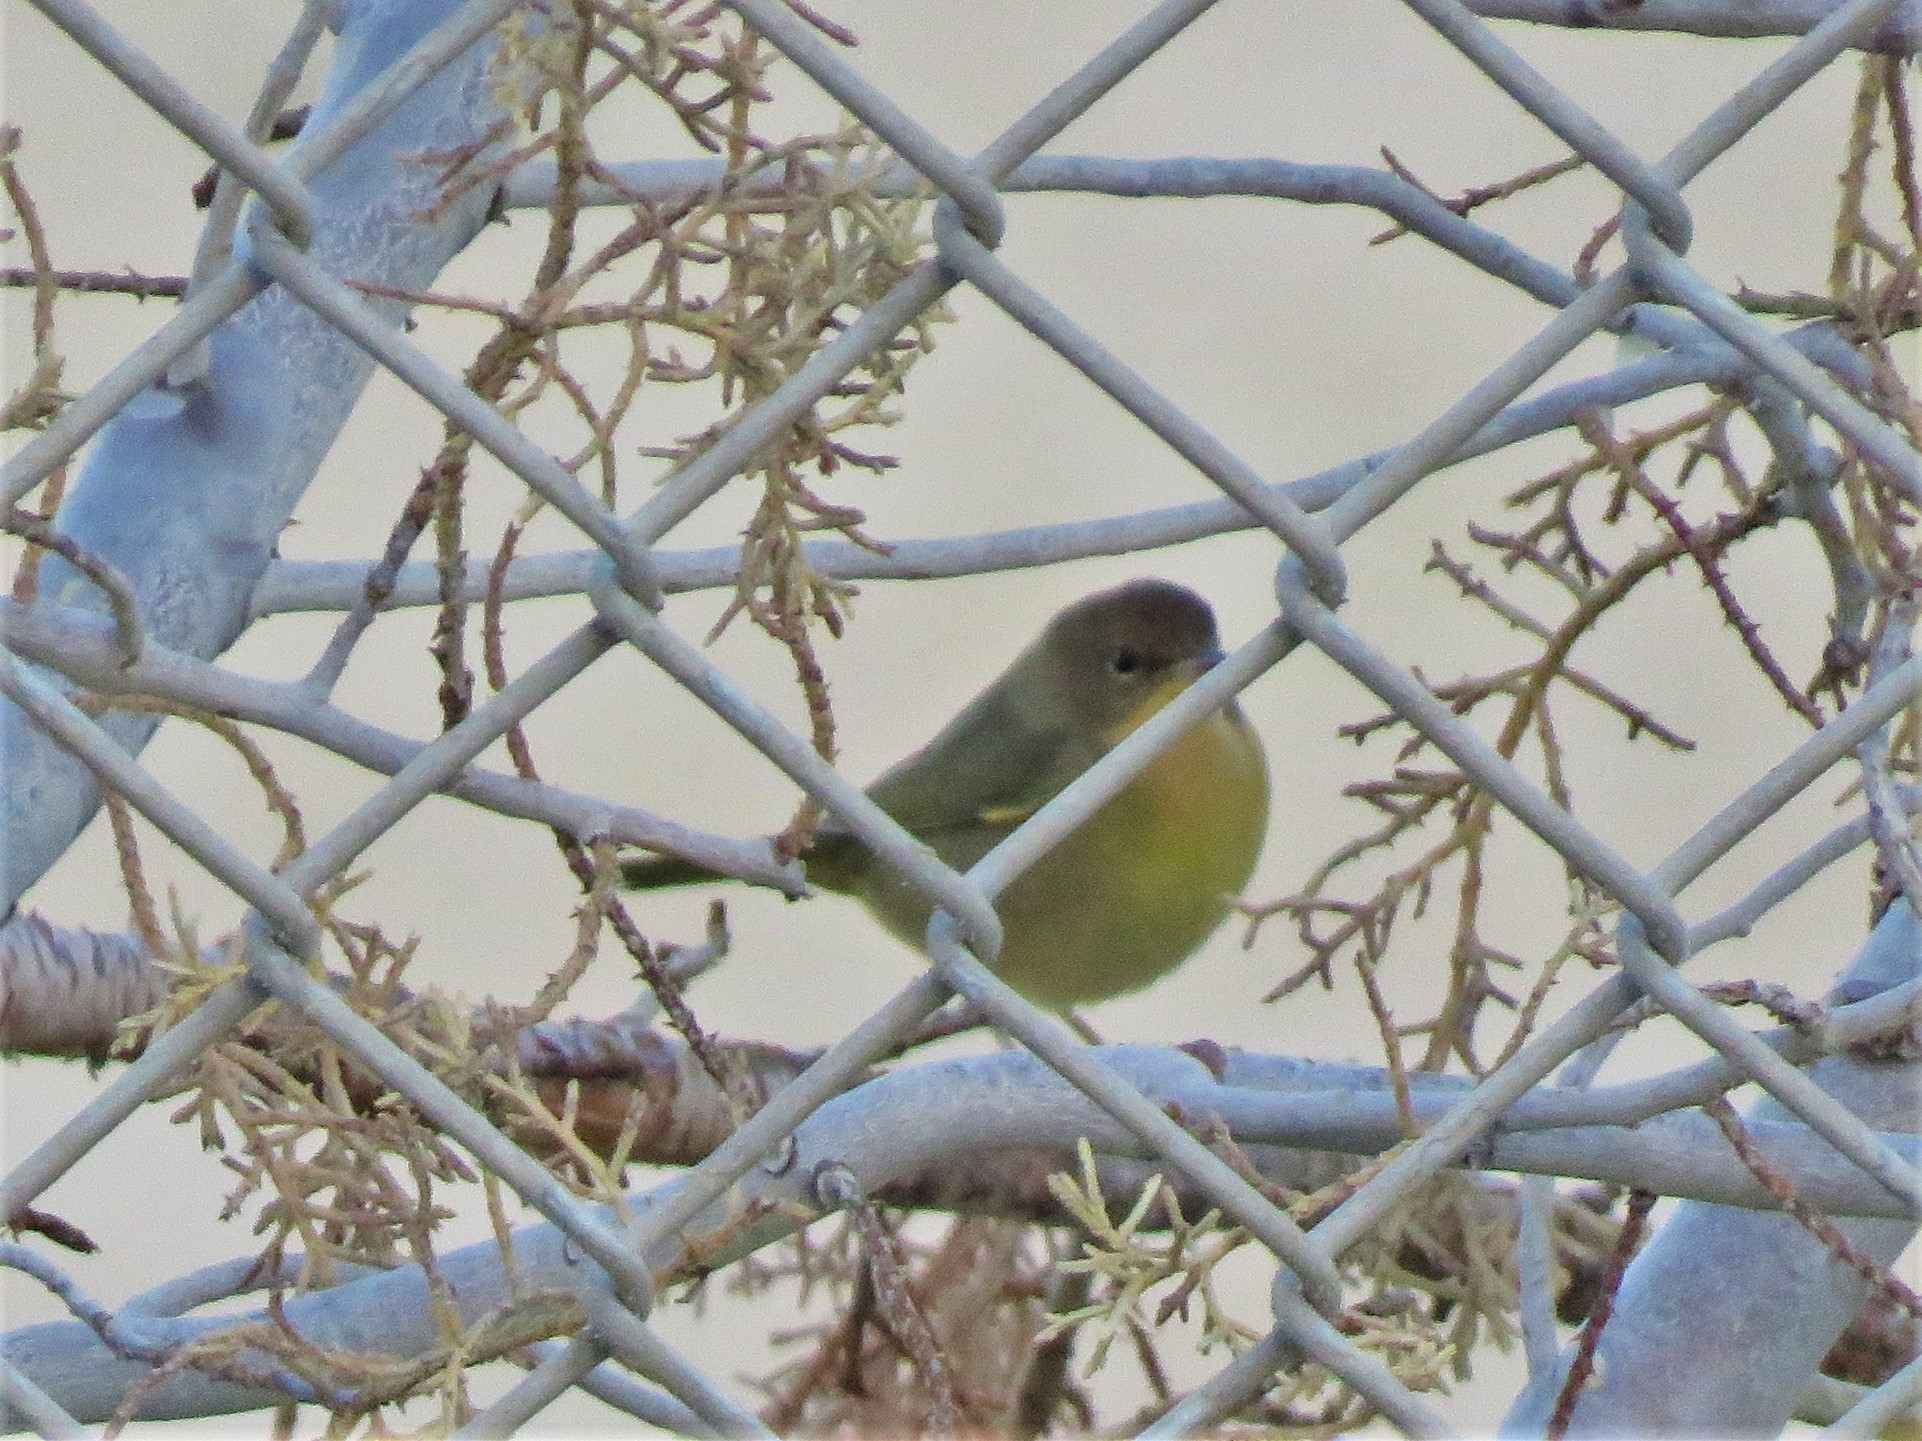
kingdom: Animalia
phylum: Chordata
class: Aves
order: Passeriformes
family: Parulidae
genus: Geothlypis
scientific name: Geothlypis trichas
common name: Common yellowthroat
